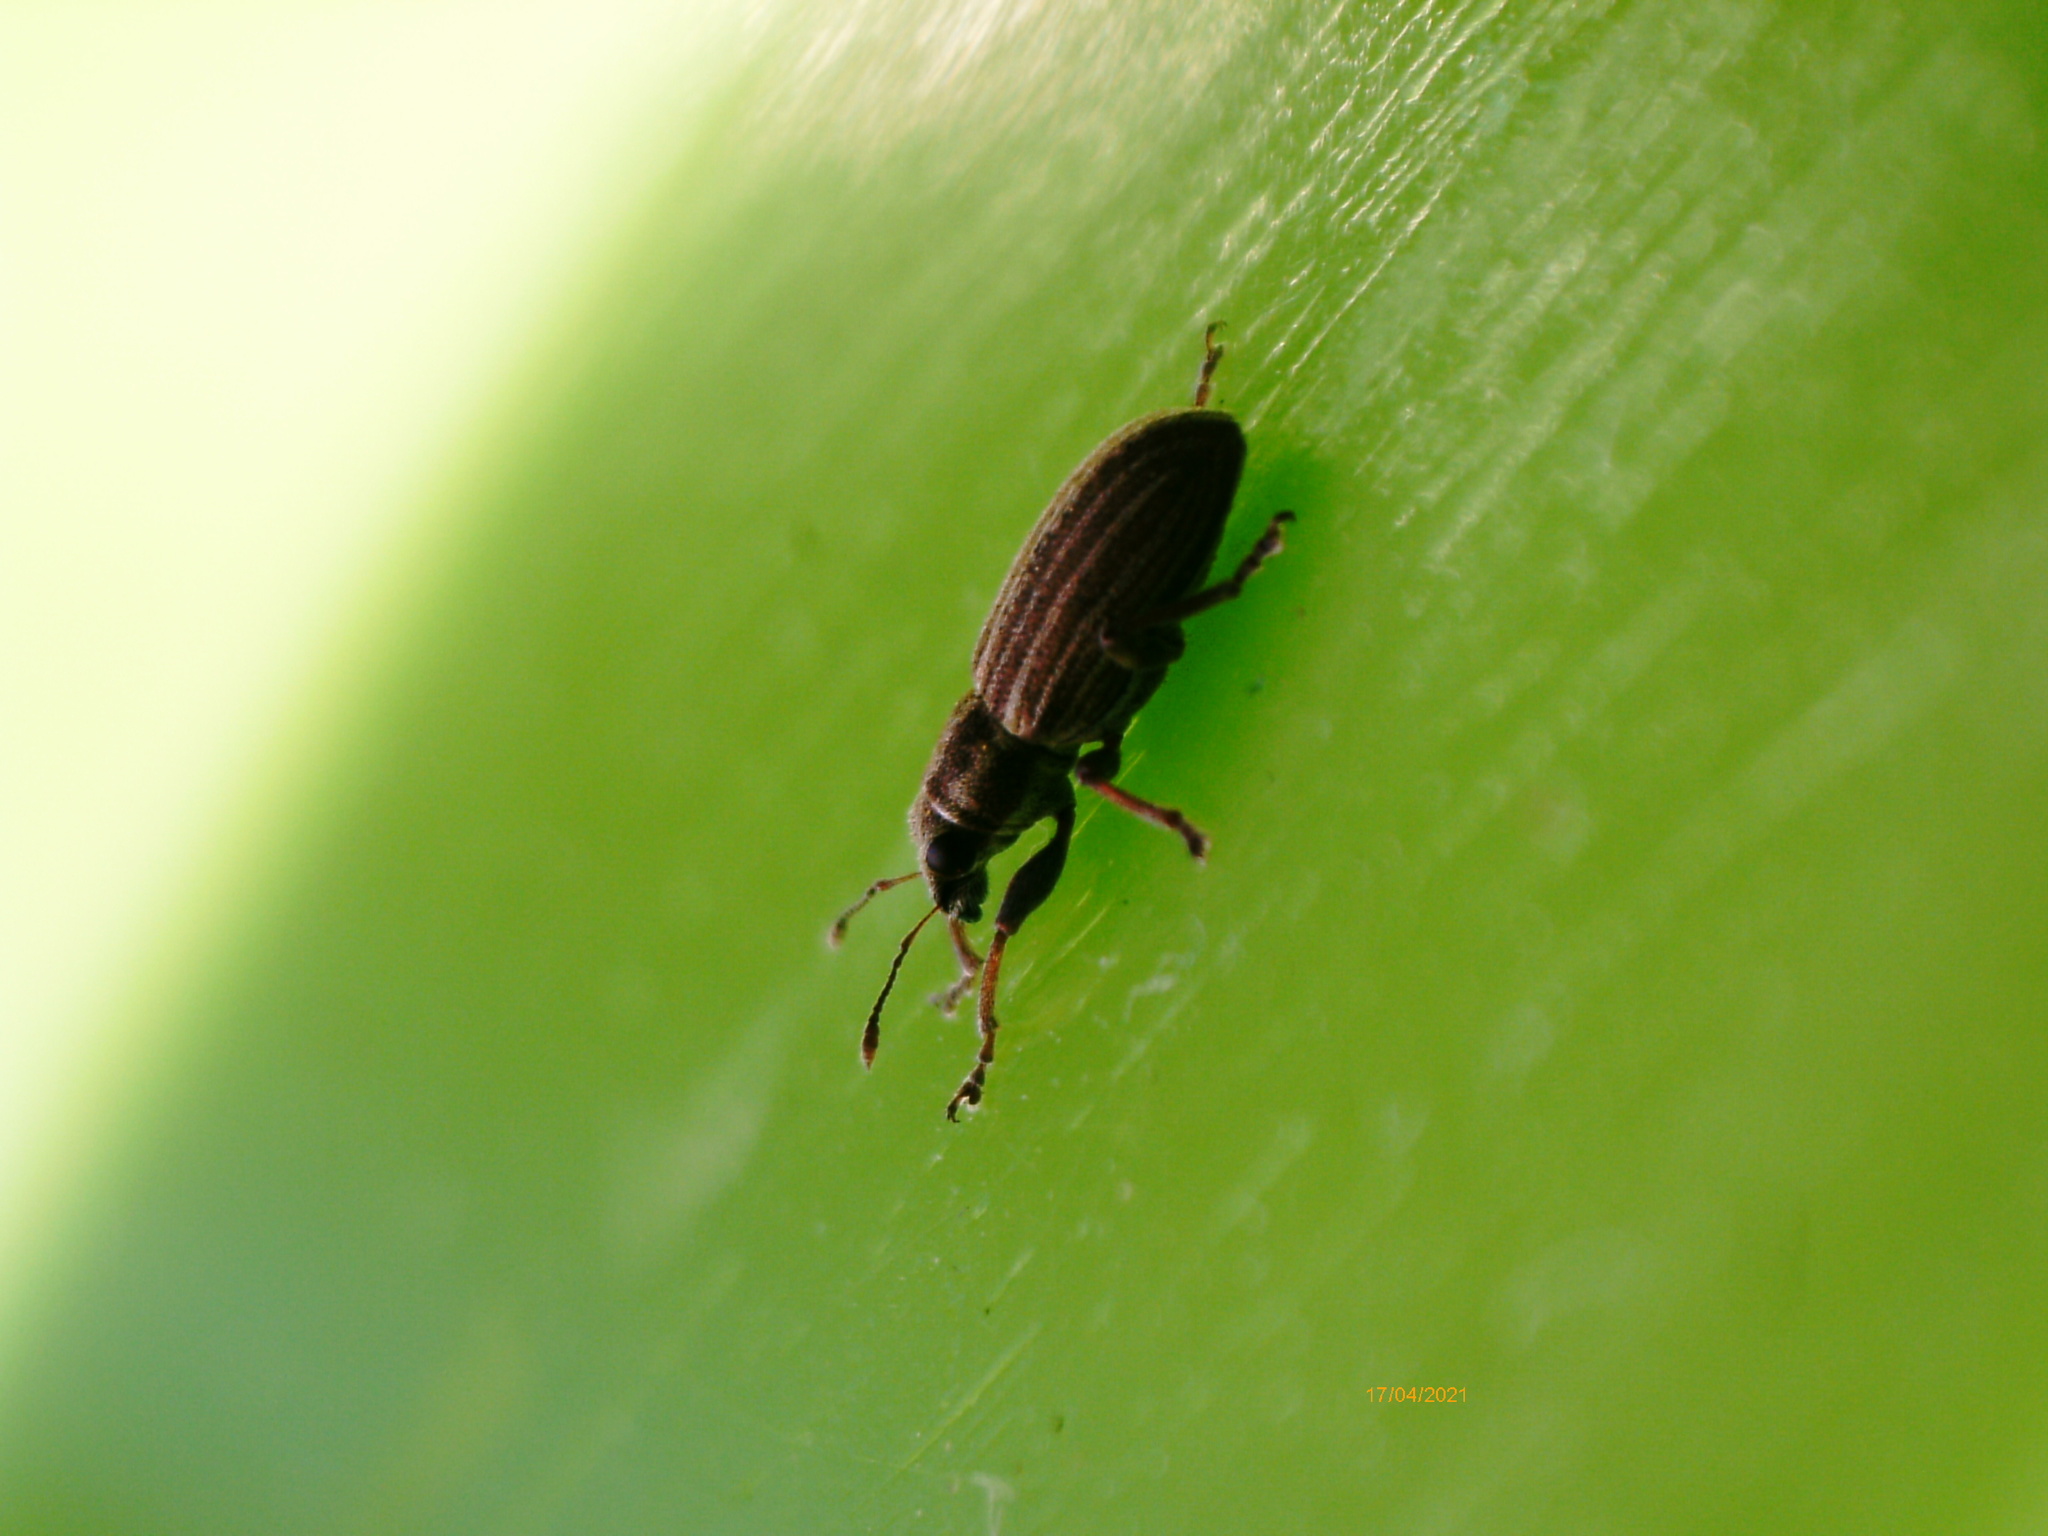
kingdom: Animalia
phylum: Arthropoda
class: Insecta
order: Coleoptera
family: Curculionidae
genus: Sitona
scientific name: Sitona lineatus
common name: Weevil
